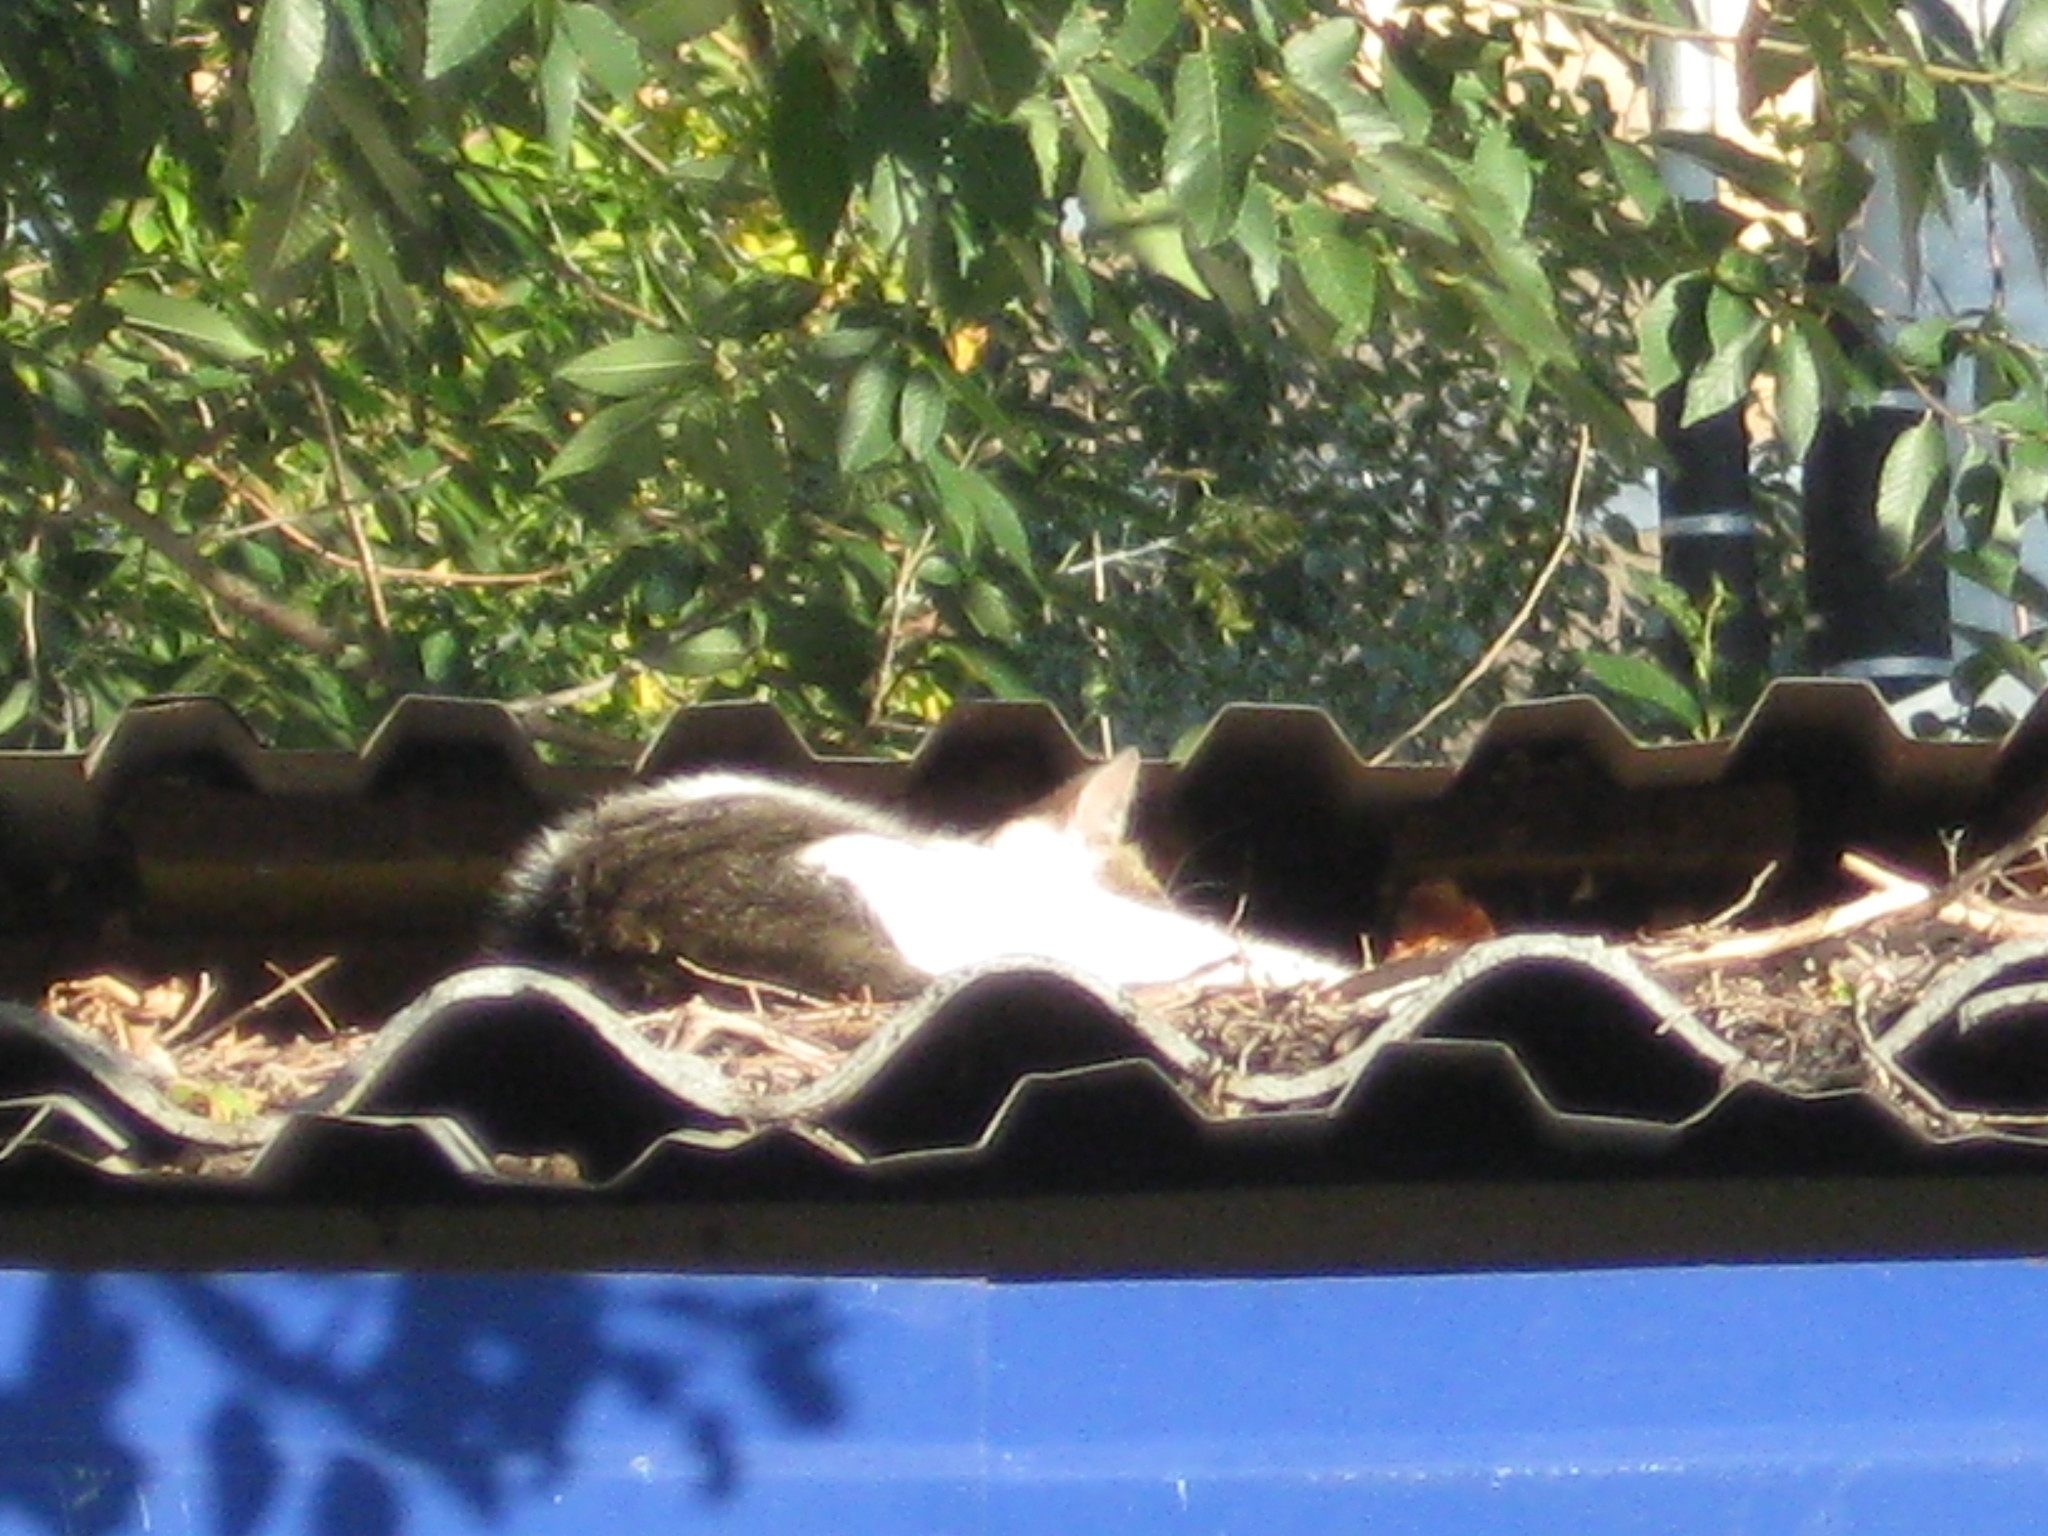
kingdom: Animalia
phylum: Chordata
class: Mammalia
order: Carnivora
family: Felidae
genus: Felis
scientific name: Felis catus
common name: Domestic cat
